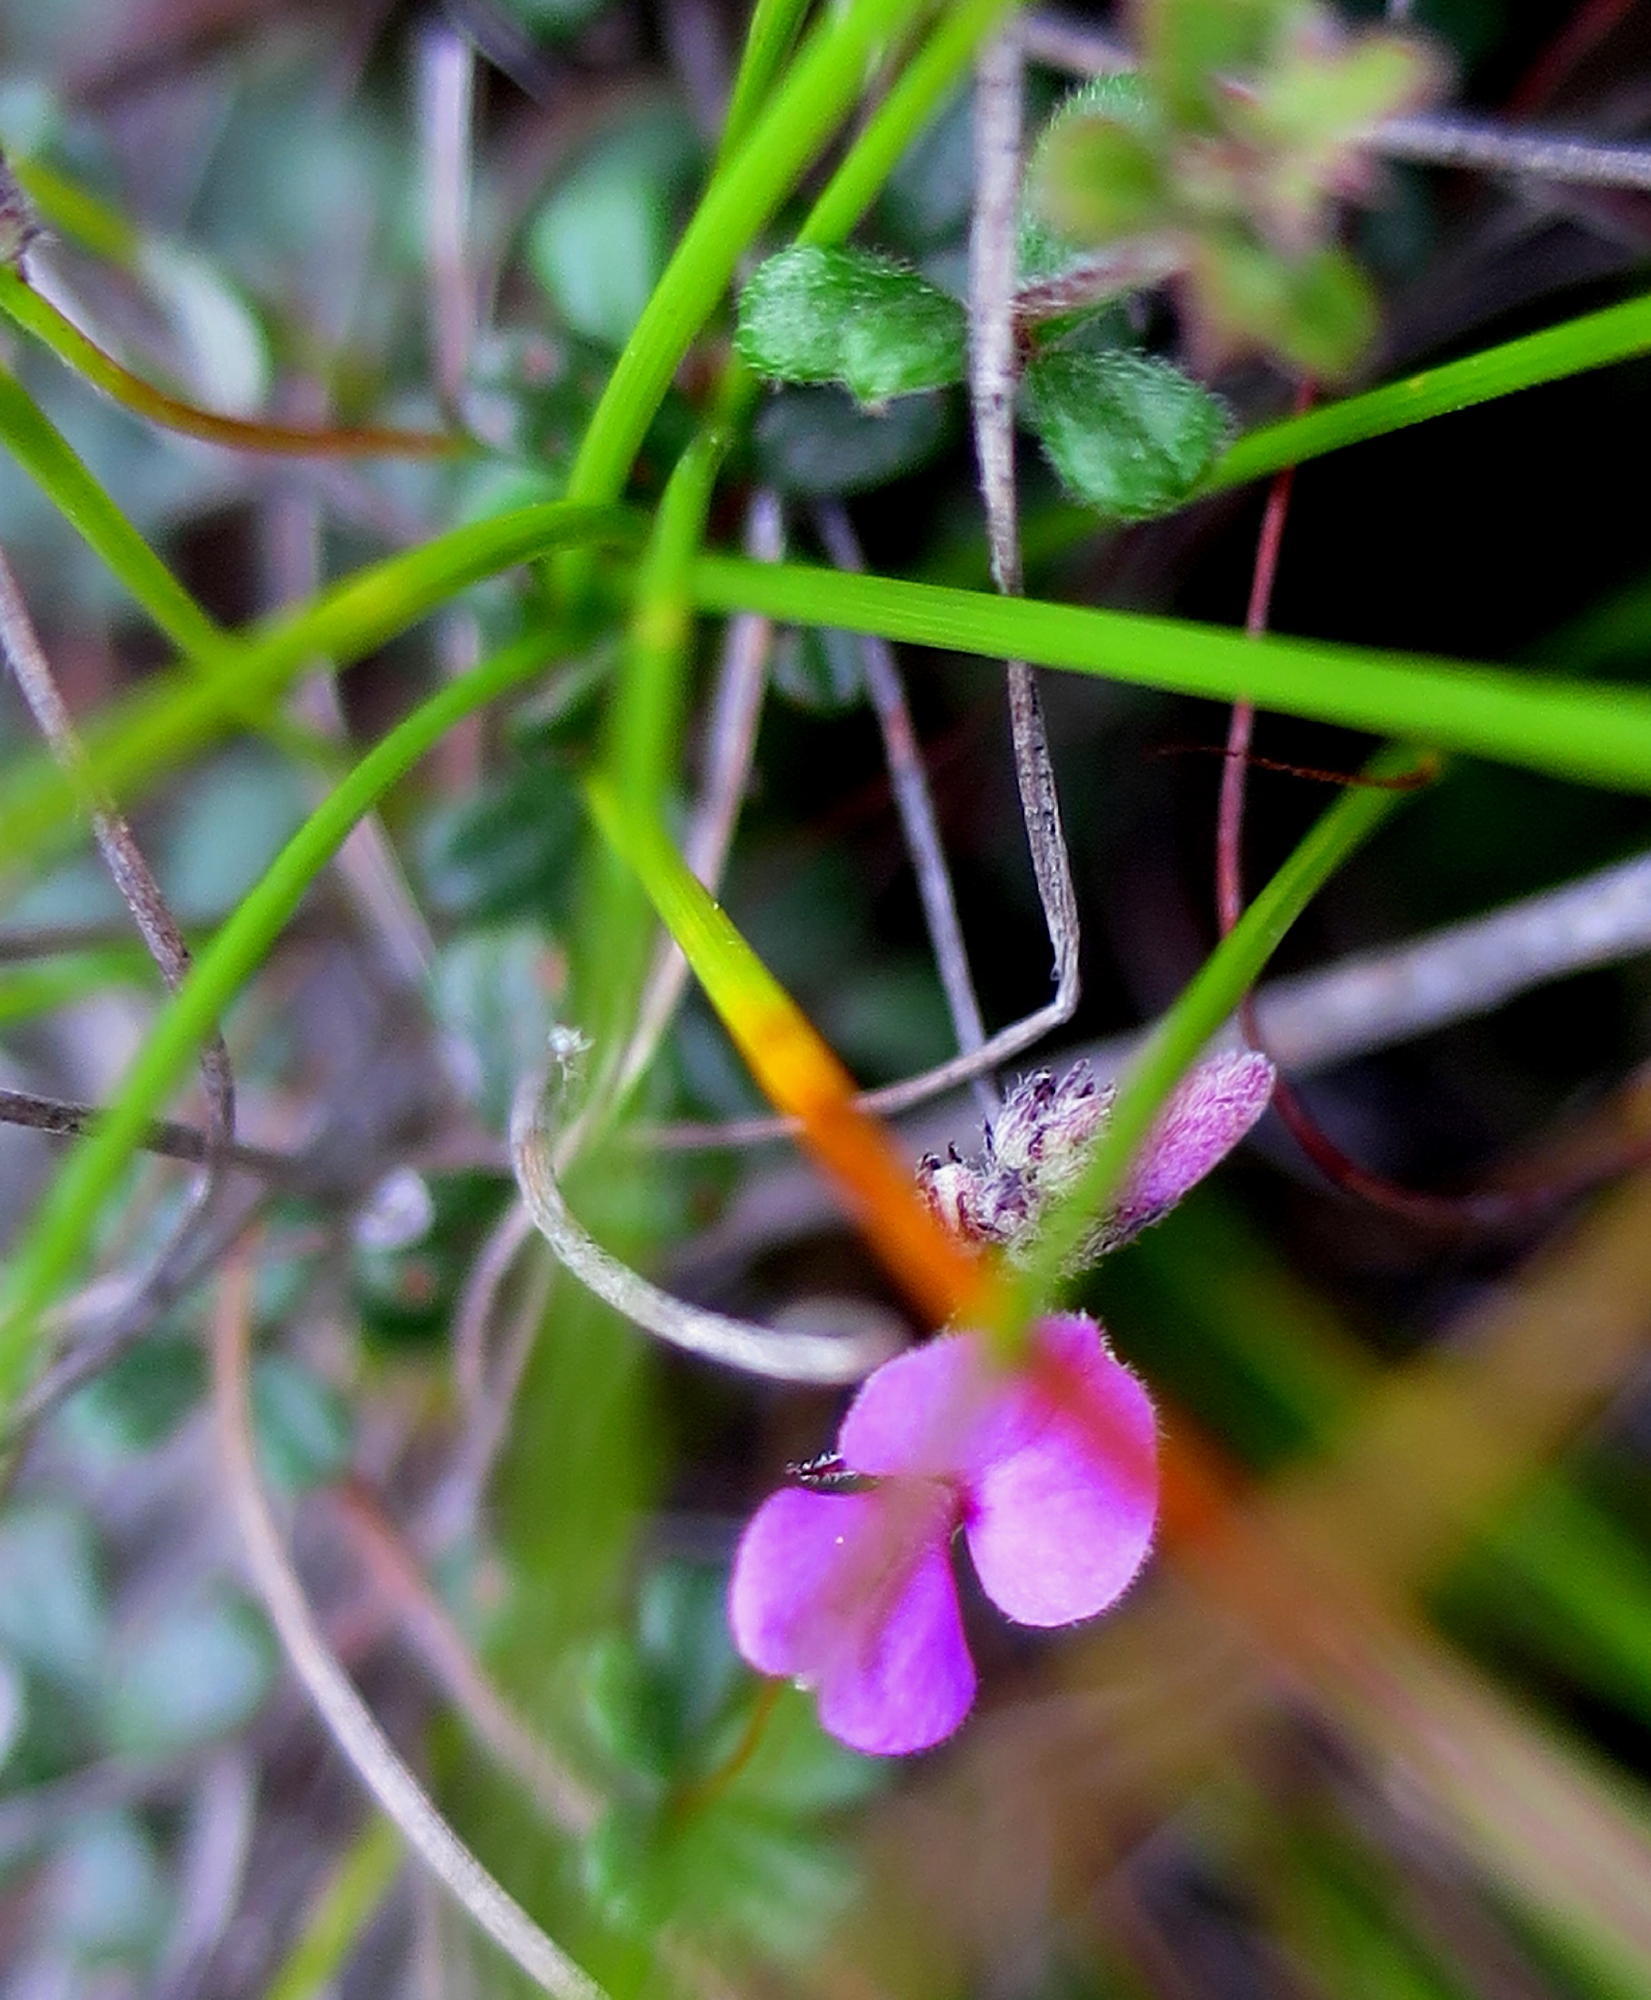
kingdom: Plantae
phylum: Tracheophyta
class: Magnoliopsida
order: Fabales
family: Fabaceae
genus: Indigofera
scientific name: Indigofera
